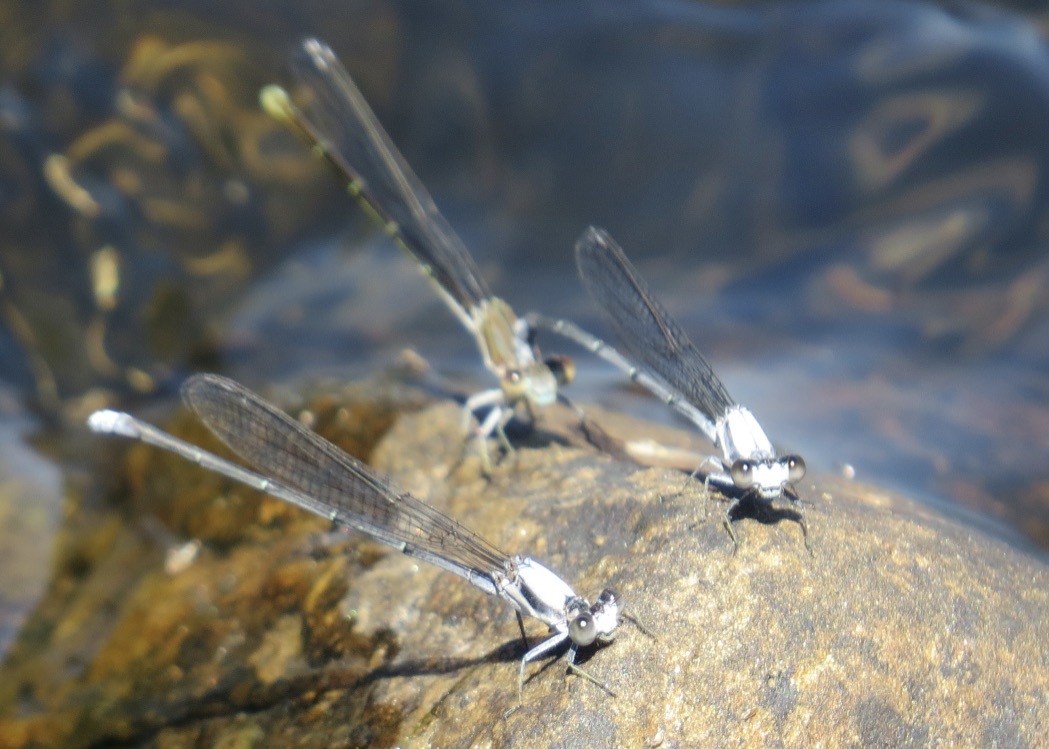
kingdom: Animalia
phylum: Arthropoda
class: Insecta
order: Odonata
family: Coenagrionidae
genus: Argia
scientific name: Argia moesta
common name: Powdered dancer
